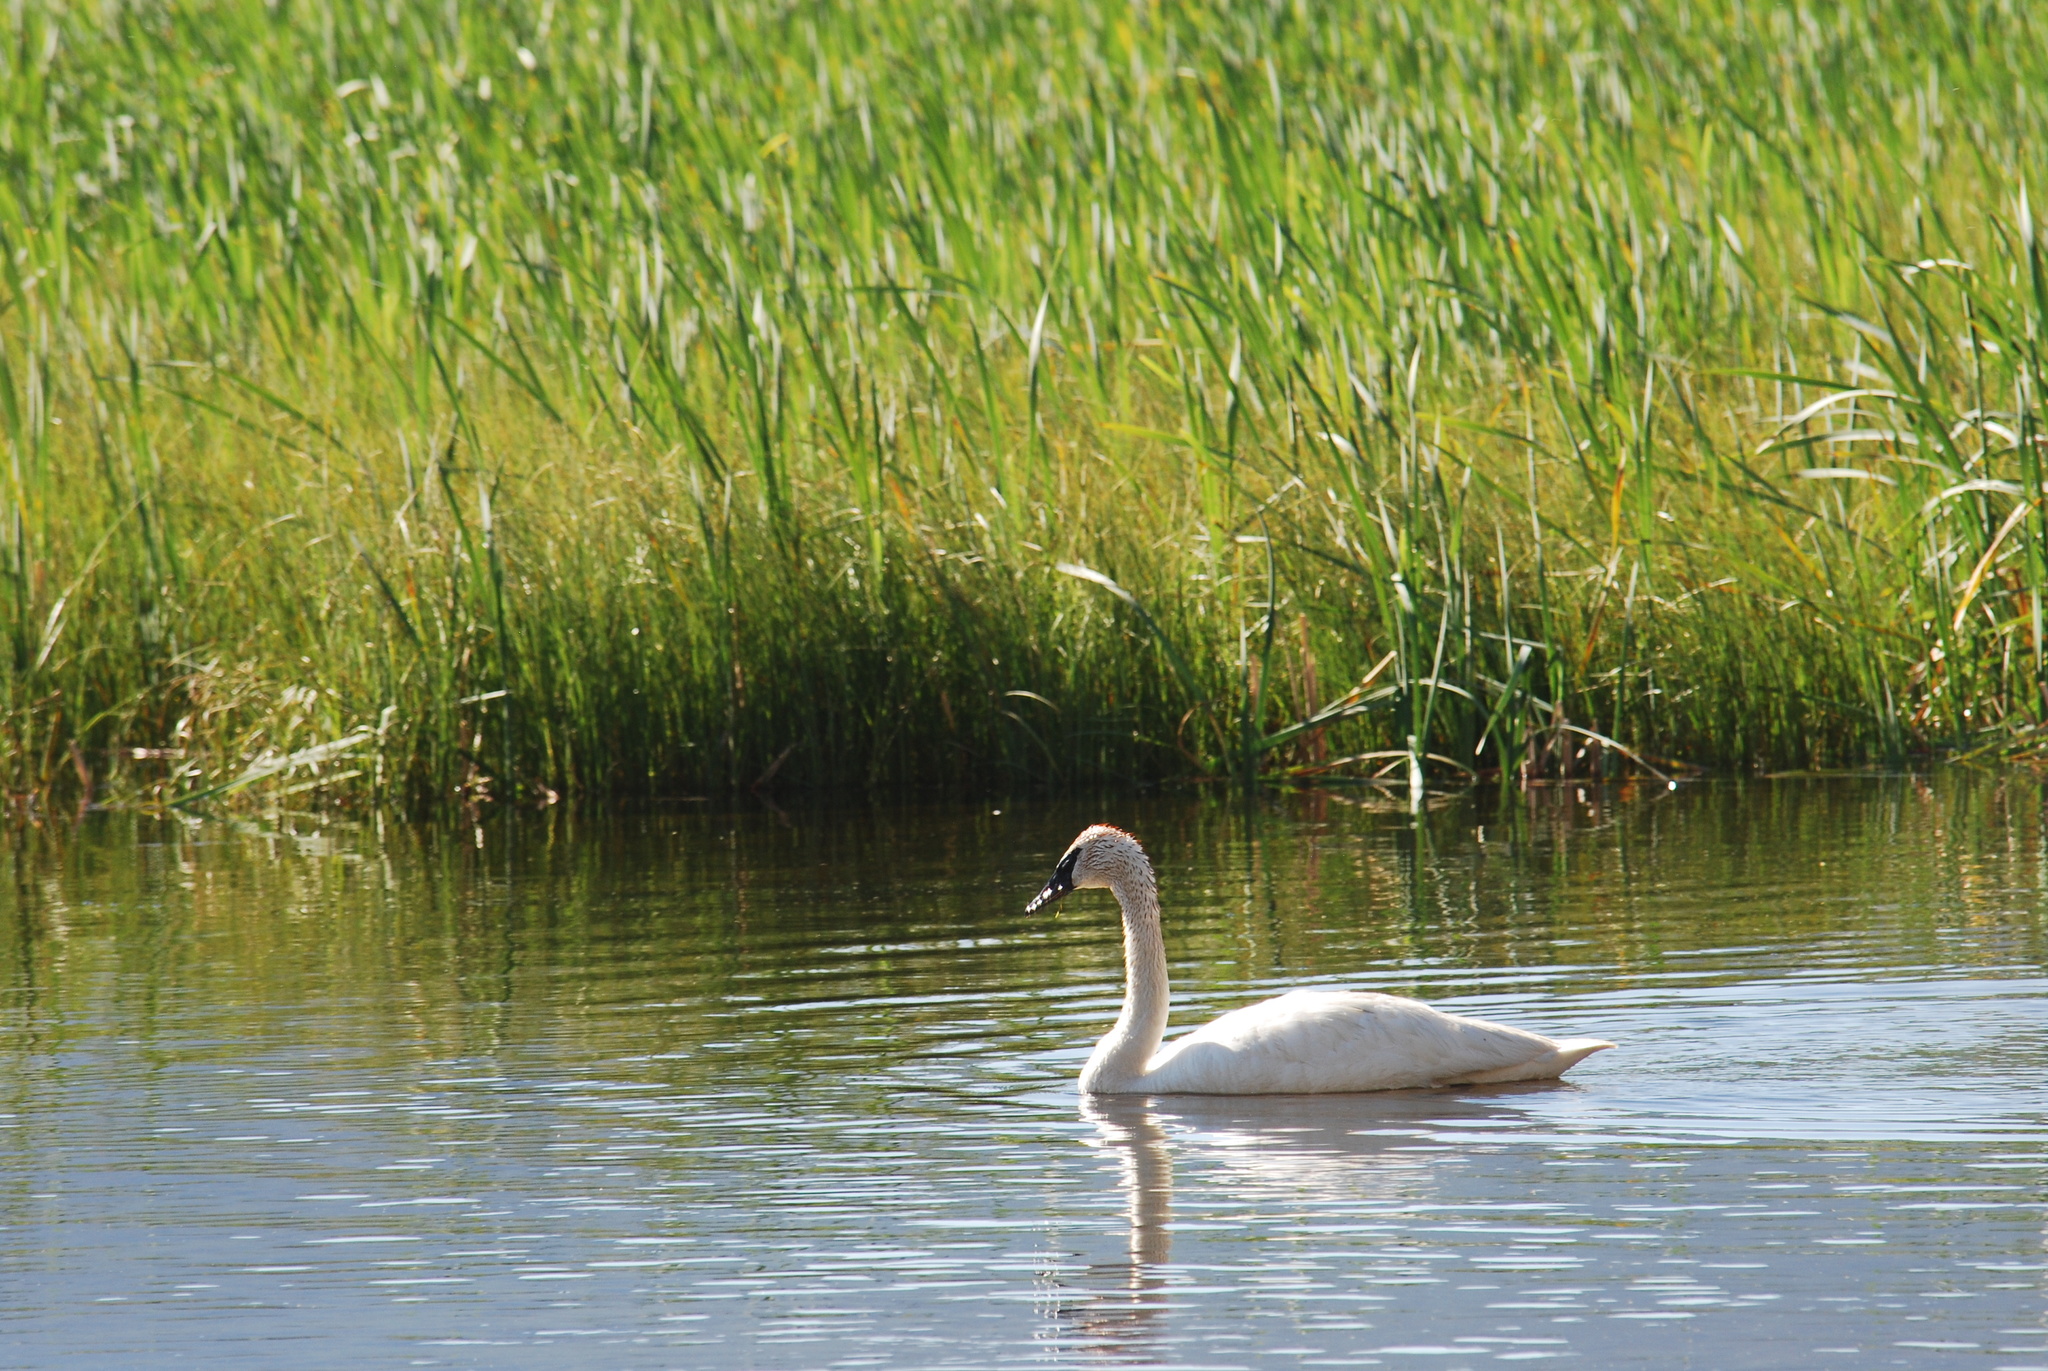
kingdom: Animalia
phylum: Chordata
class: Aves
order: Anseriformes
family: Anatidae
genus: Cygnus
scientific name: Cygnus buccinator
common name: Trumpeter swan
